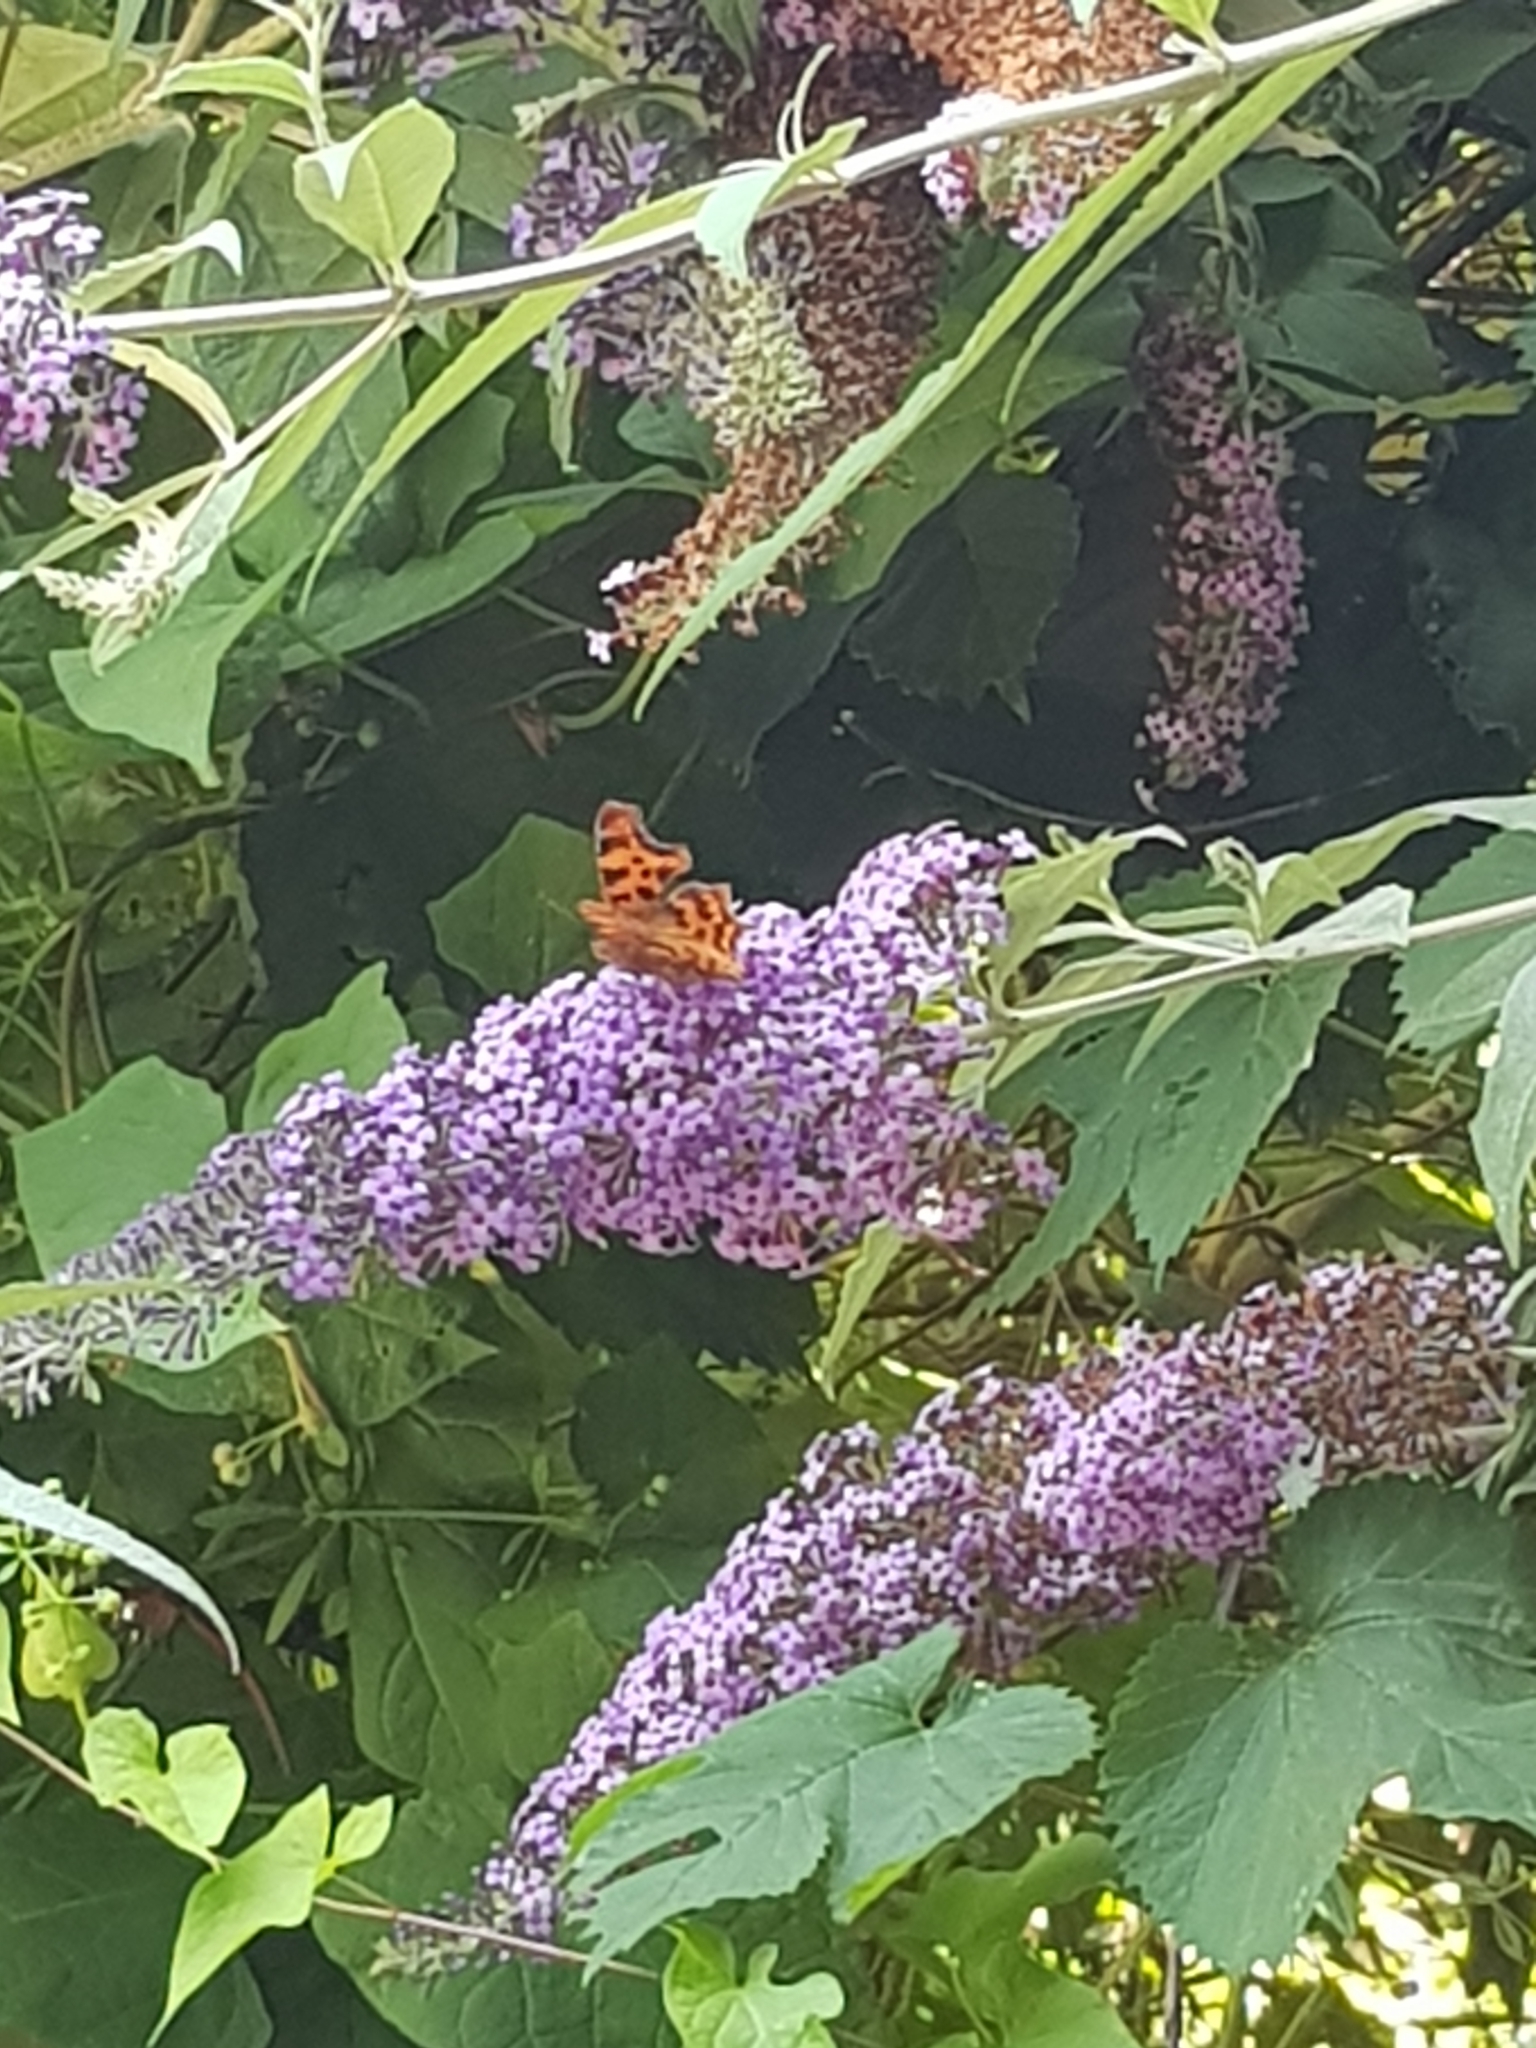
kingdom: Plantae
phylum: Tracheophyta
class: Magnoliopsida
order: Lamiales
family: Scrophulariaceae
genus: Buddleja
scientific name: Buddleja davidii
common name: Butterfly-bush
